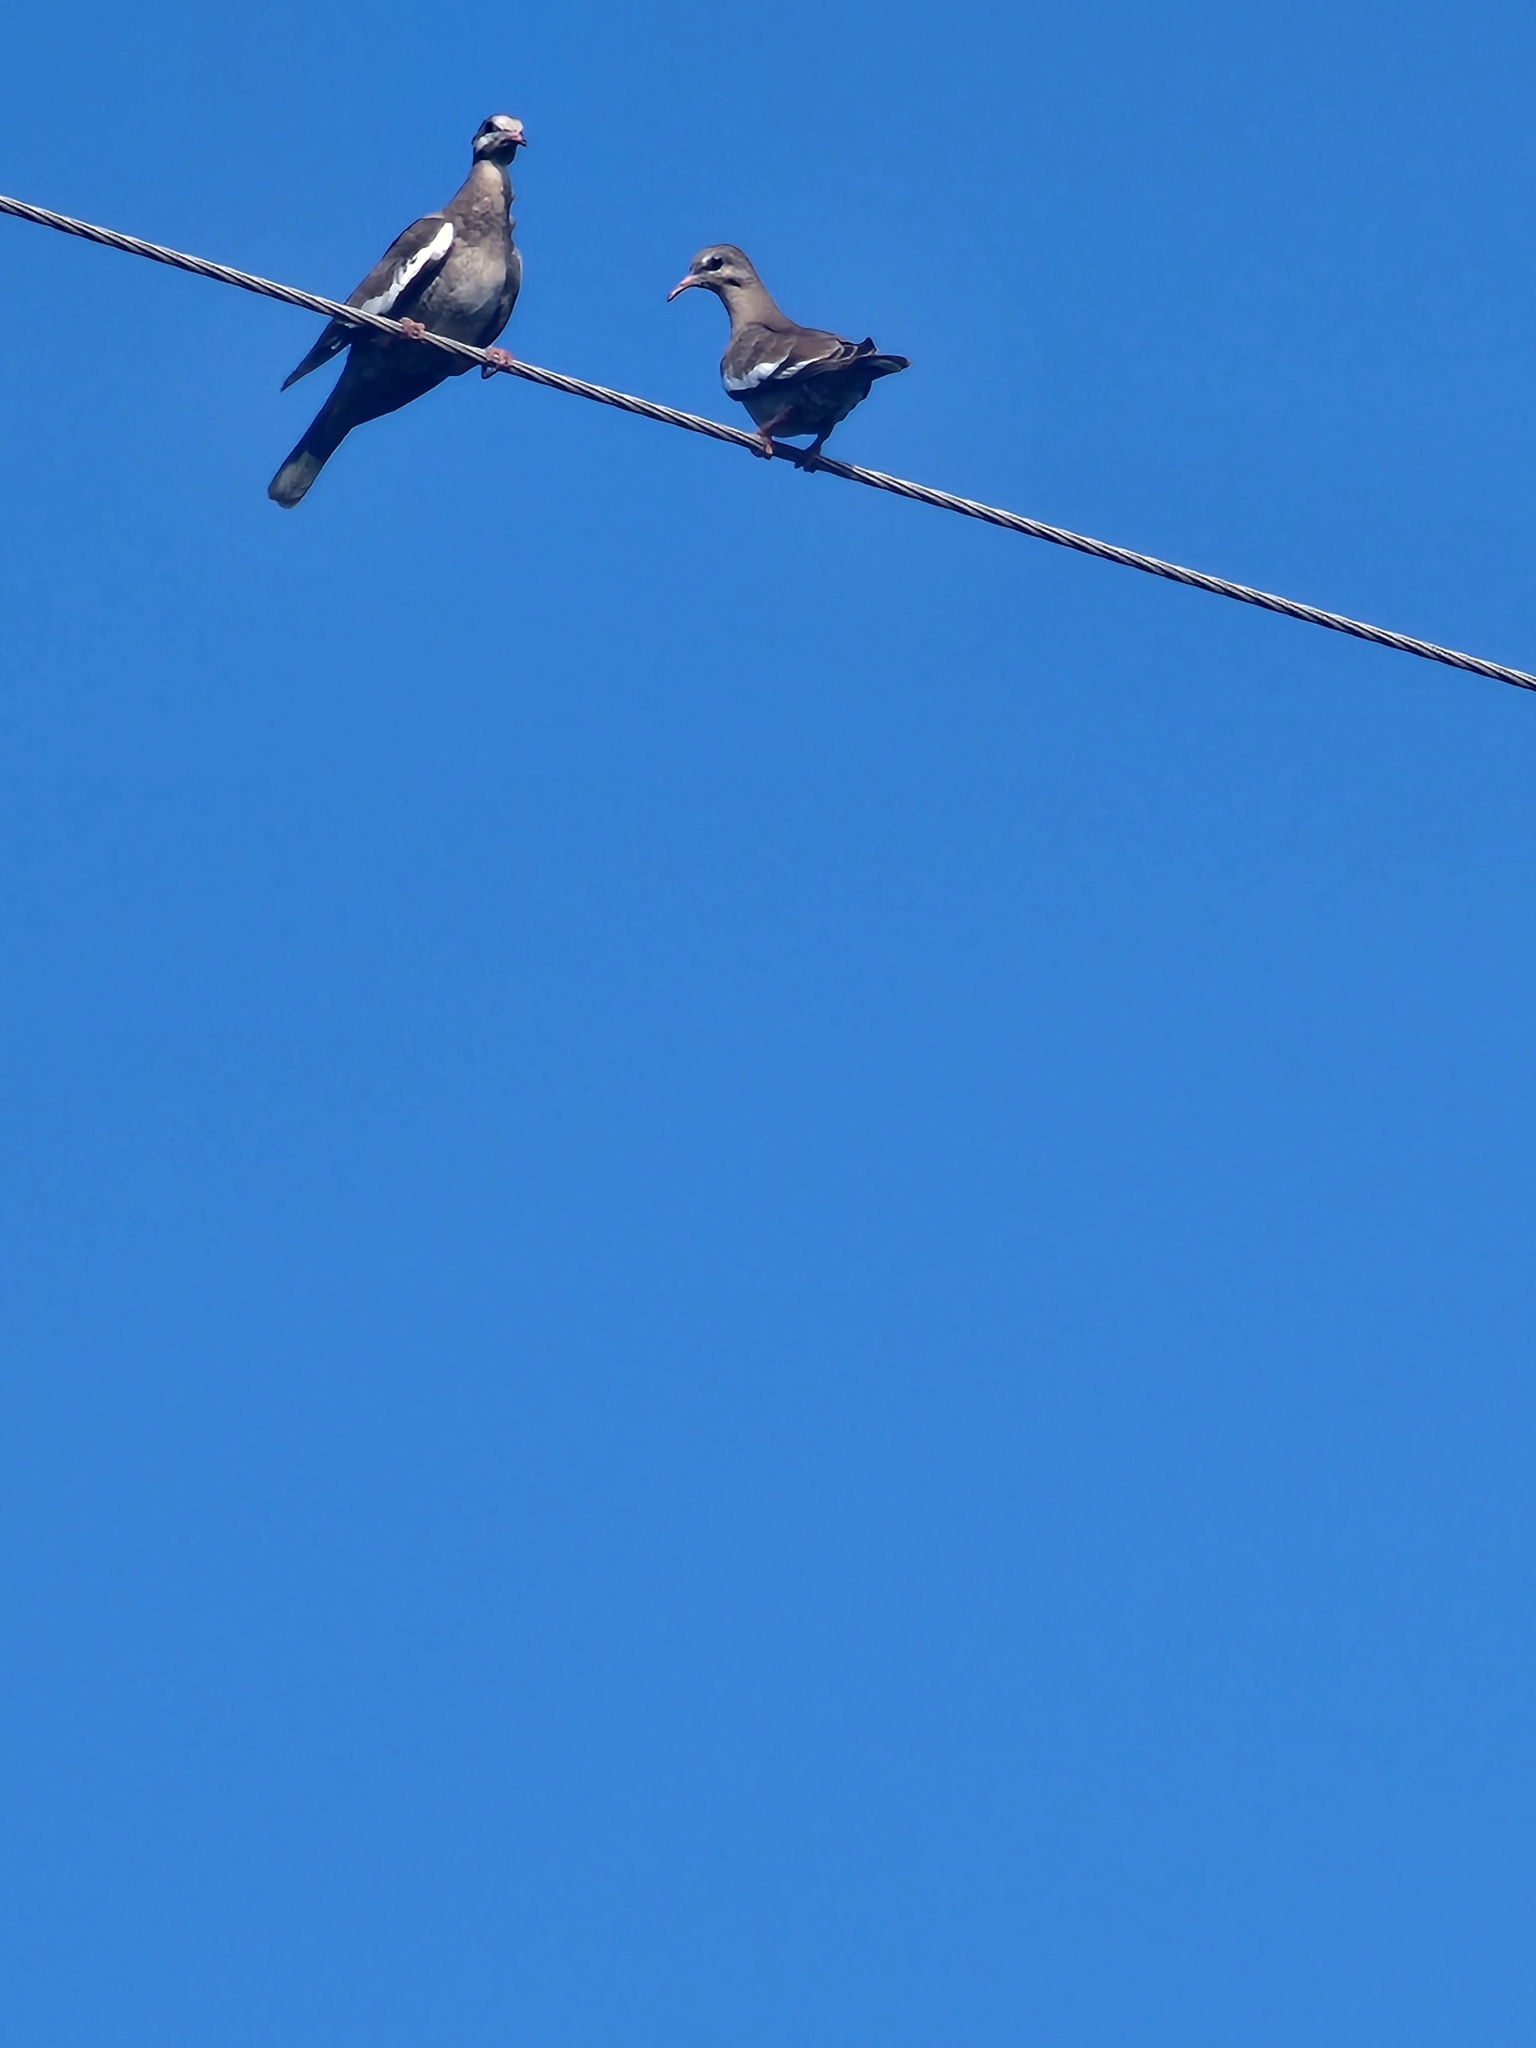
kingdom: Animalia
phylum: Chordata
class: Aves
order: Columbiformes
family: Columbidae
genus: Zenaida
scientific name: Zenaida asiatica
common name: White-winged dove
